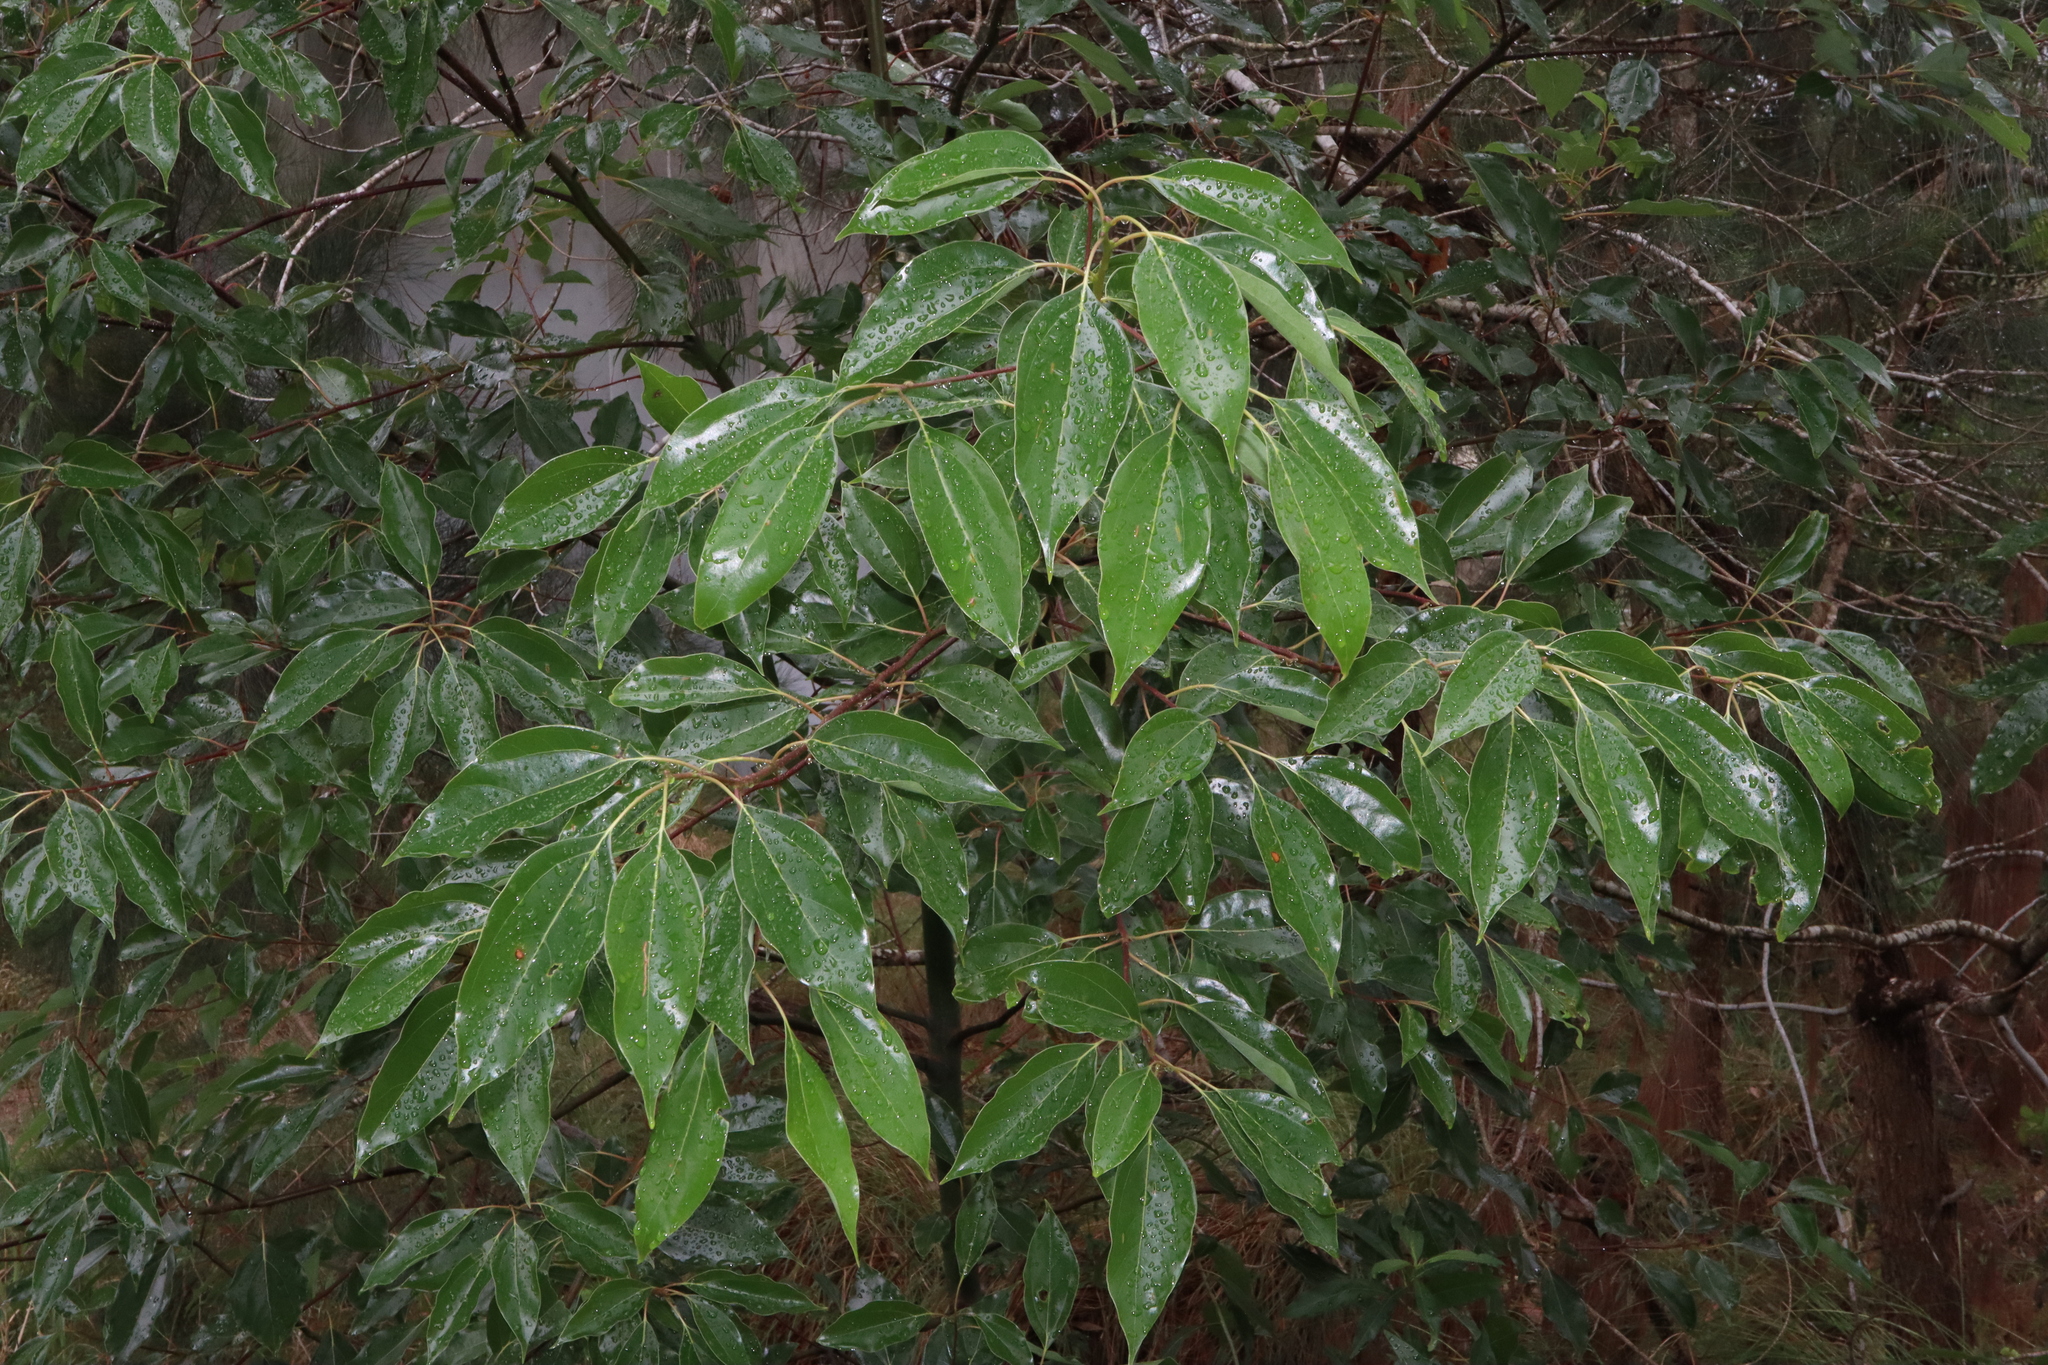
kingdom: Plantae
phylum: Tracheophyta
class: Magnoliopsida
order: Laurales
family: Lauraceae
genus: Cinnamomum
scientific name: Cinnamomum camphora
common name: Camphortree
